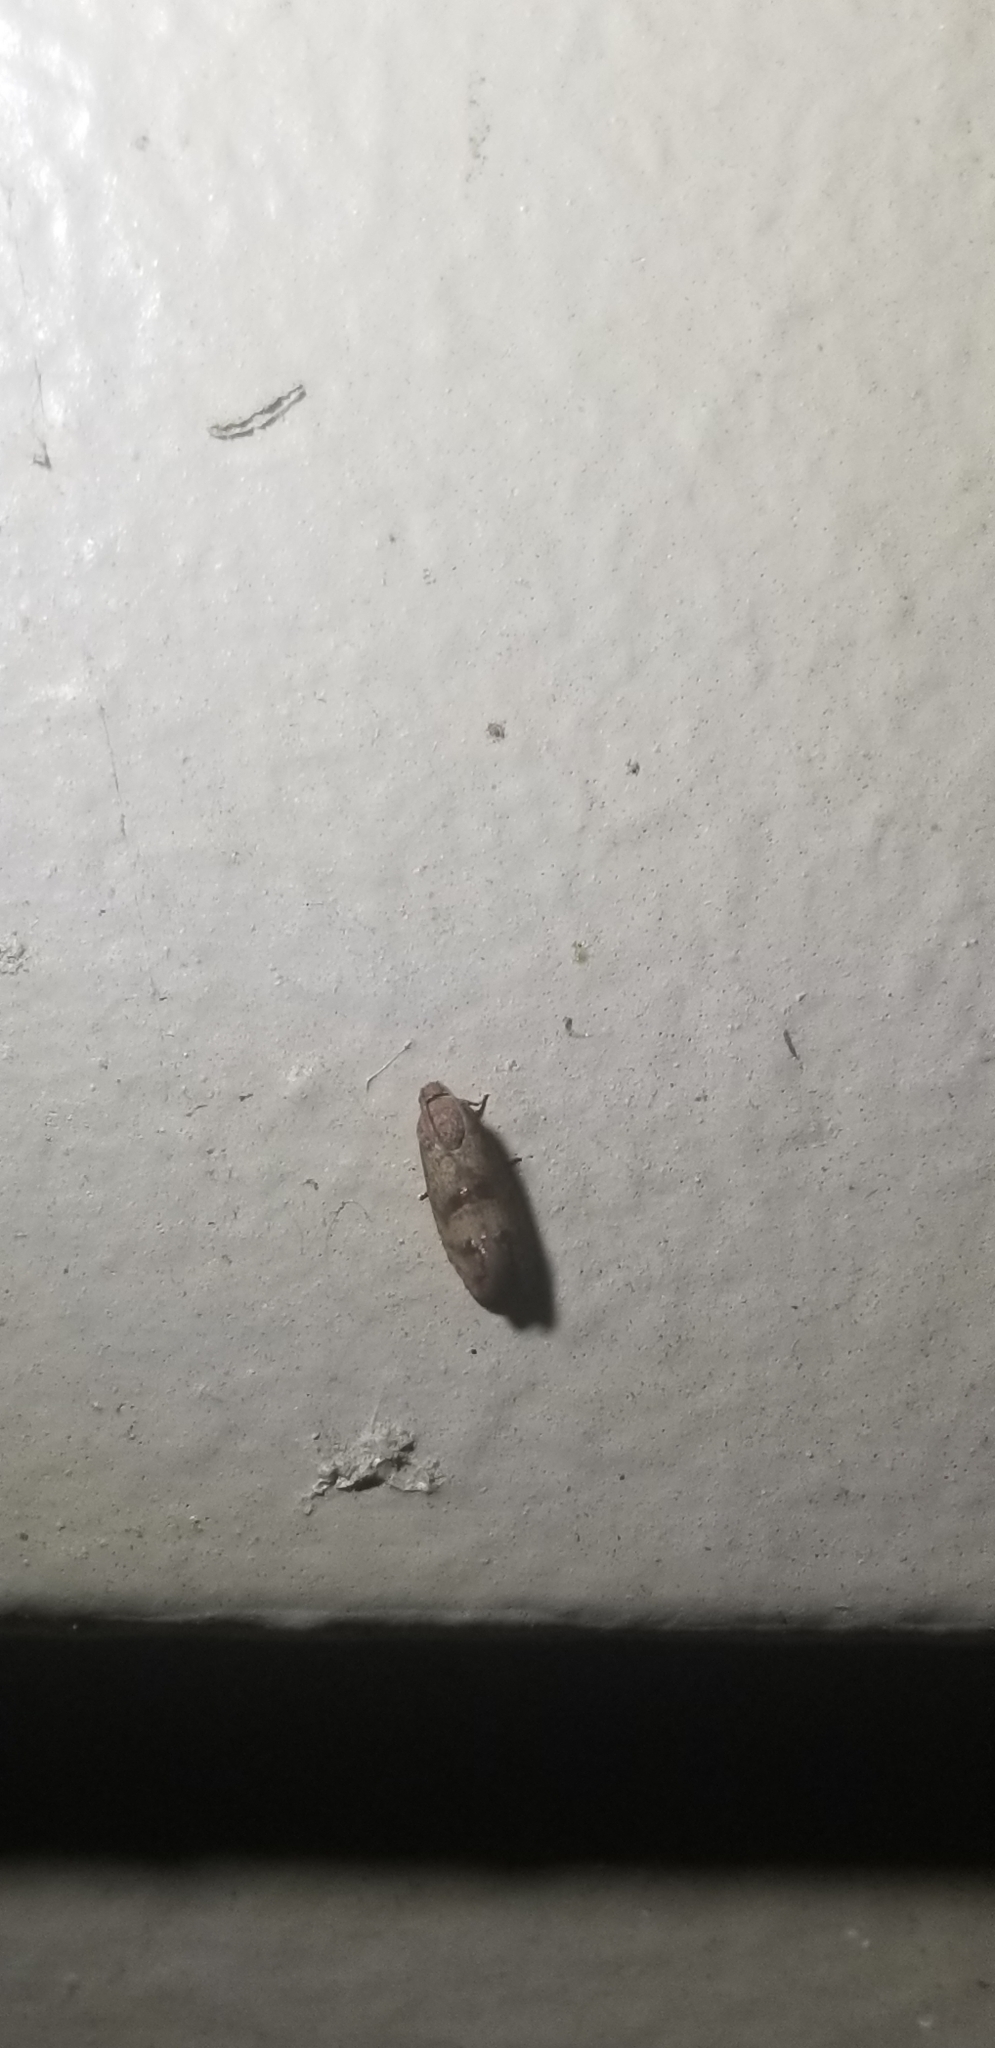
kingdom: Animalia
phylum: Arthropoda
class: Insecta
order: Lepidoptera
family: Tortricidae
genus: Cydia
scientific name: Cydia latiferreana
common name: Filbertworm moth
